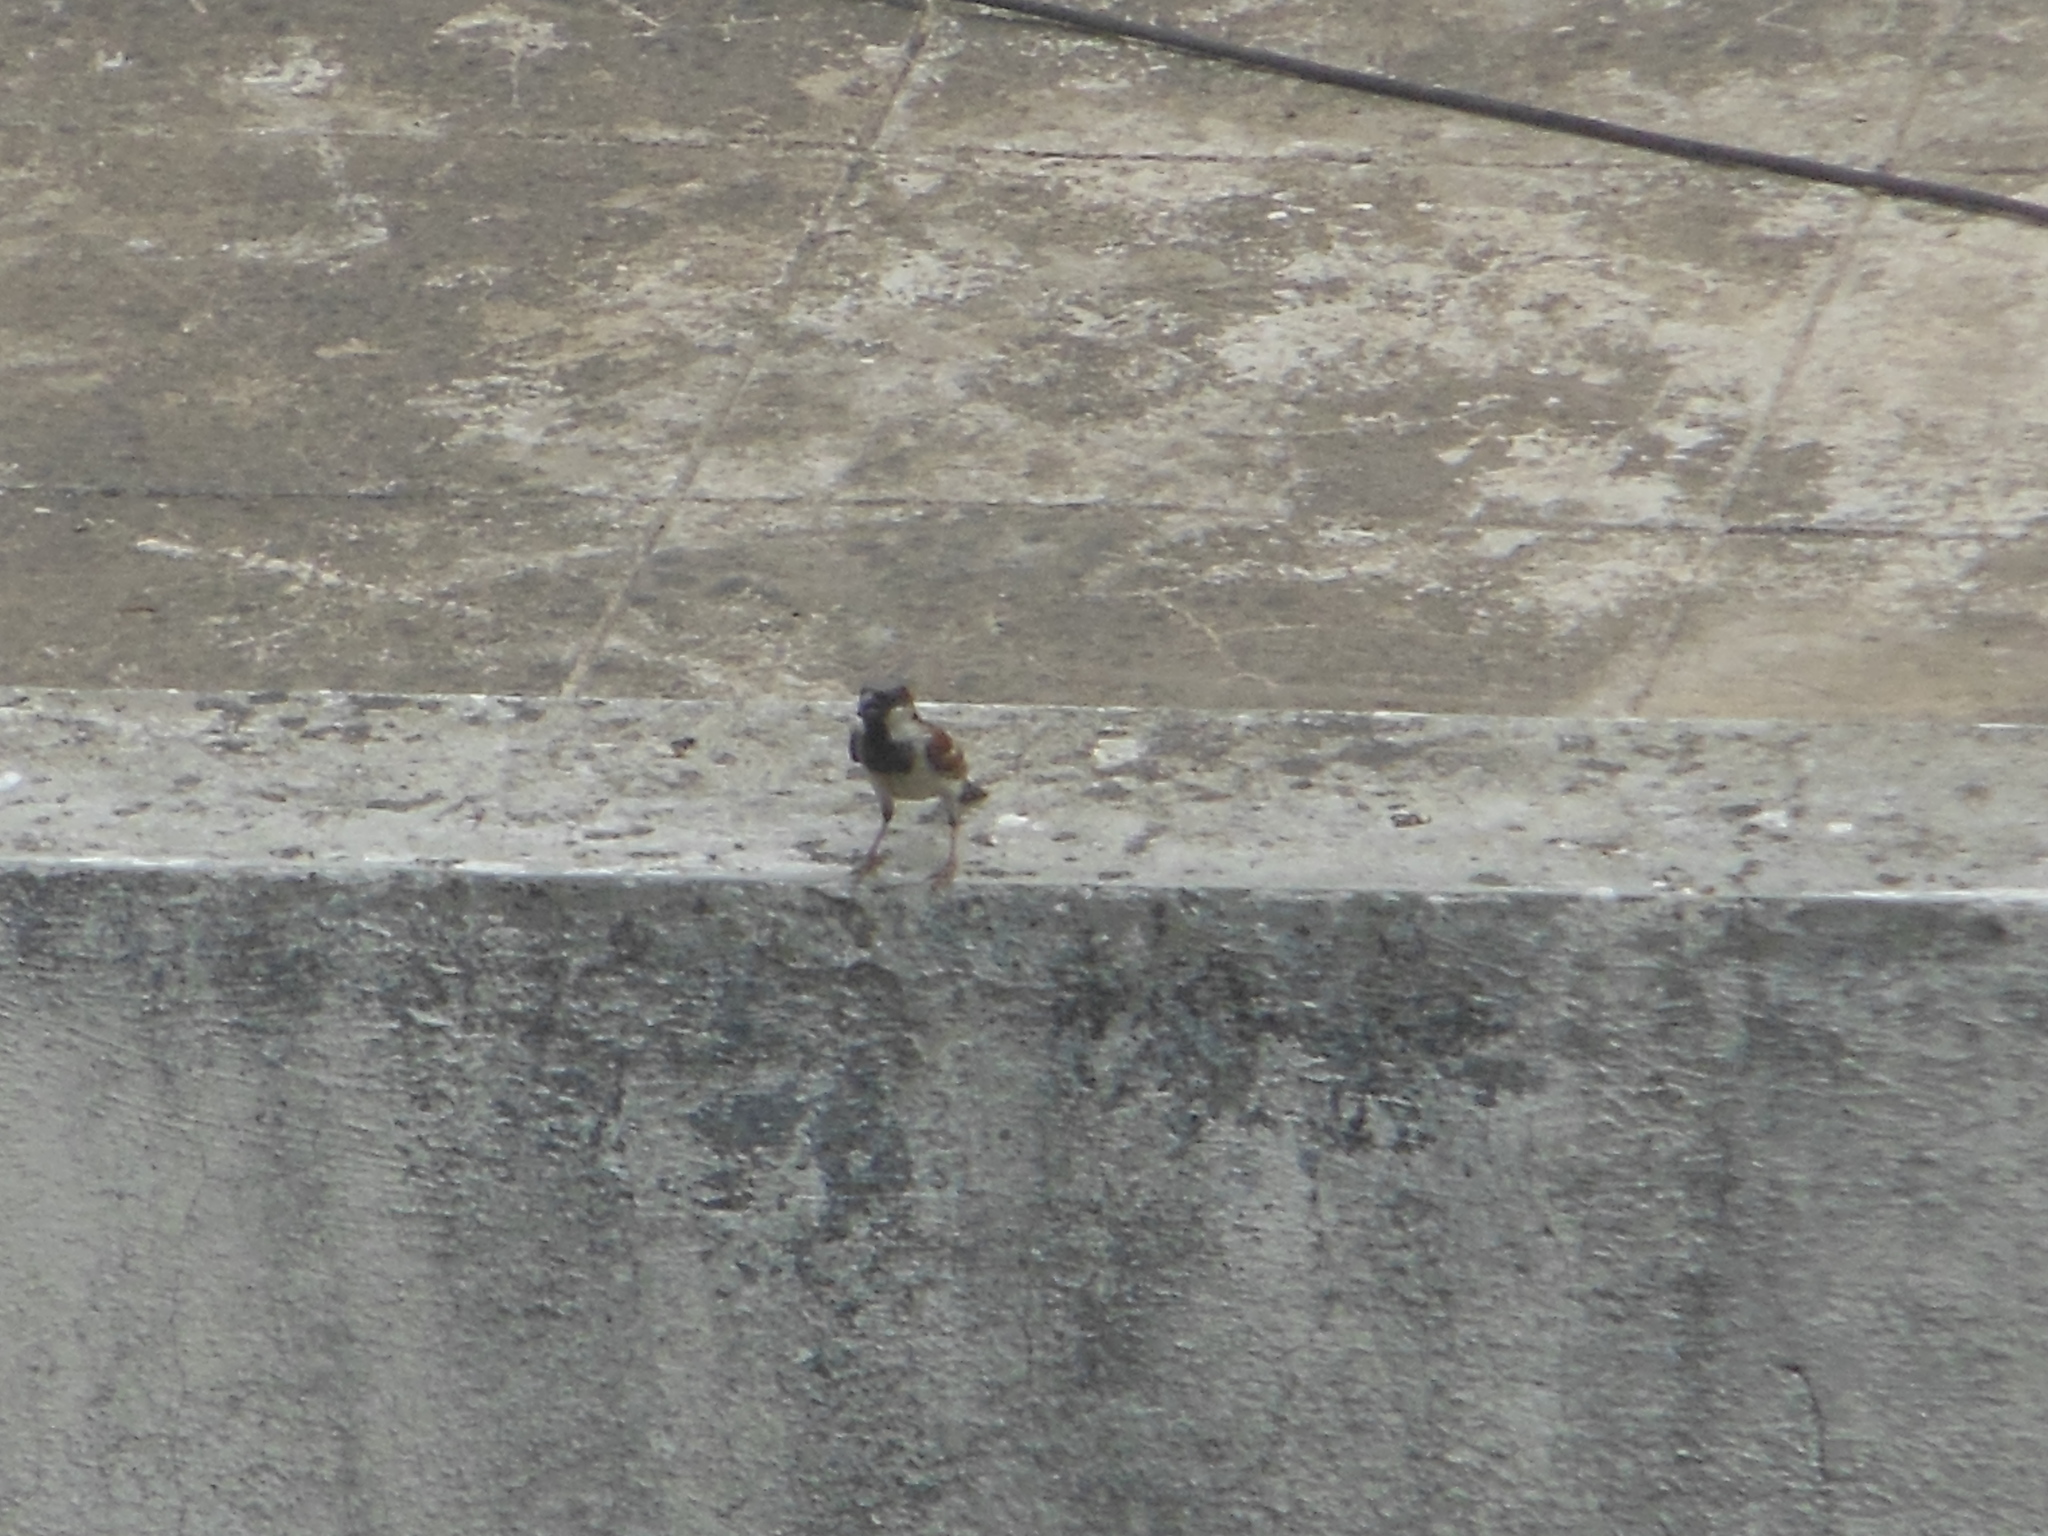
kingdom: Animalia
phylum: Chordata
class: Aves
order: Passeriformes
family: Passeridae
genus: Passer
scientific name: Passer domesticus
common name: House sparrow
